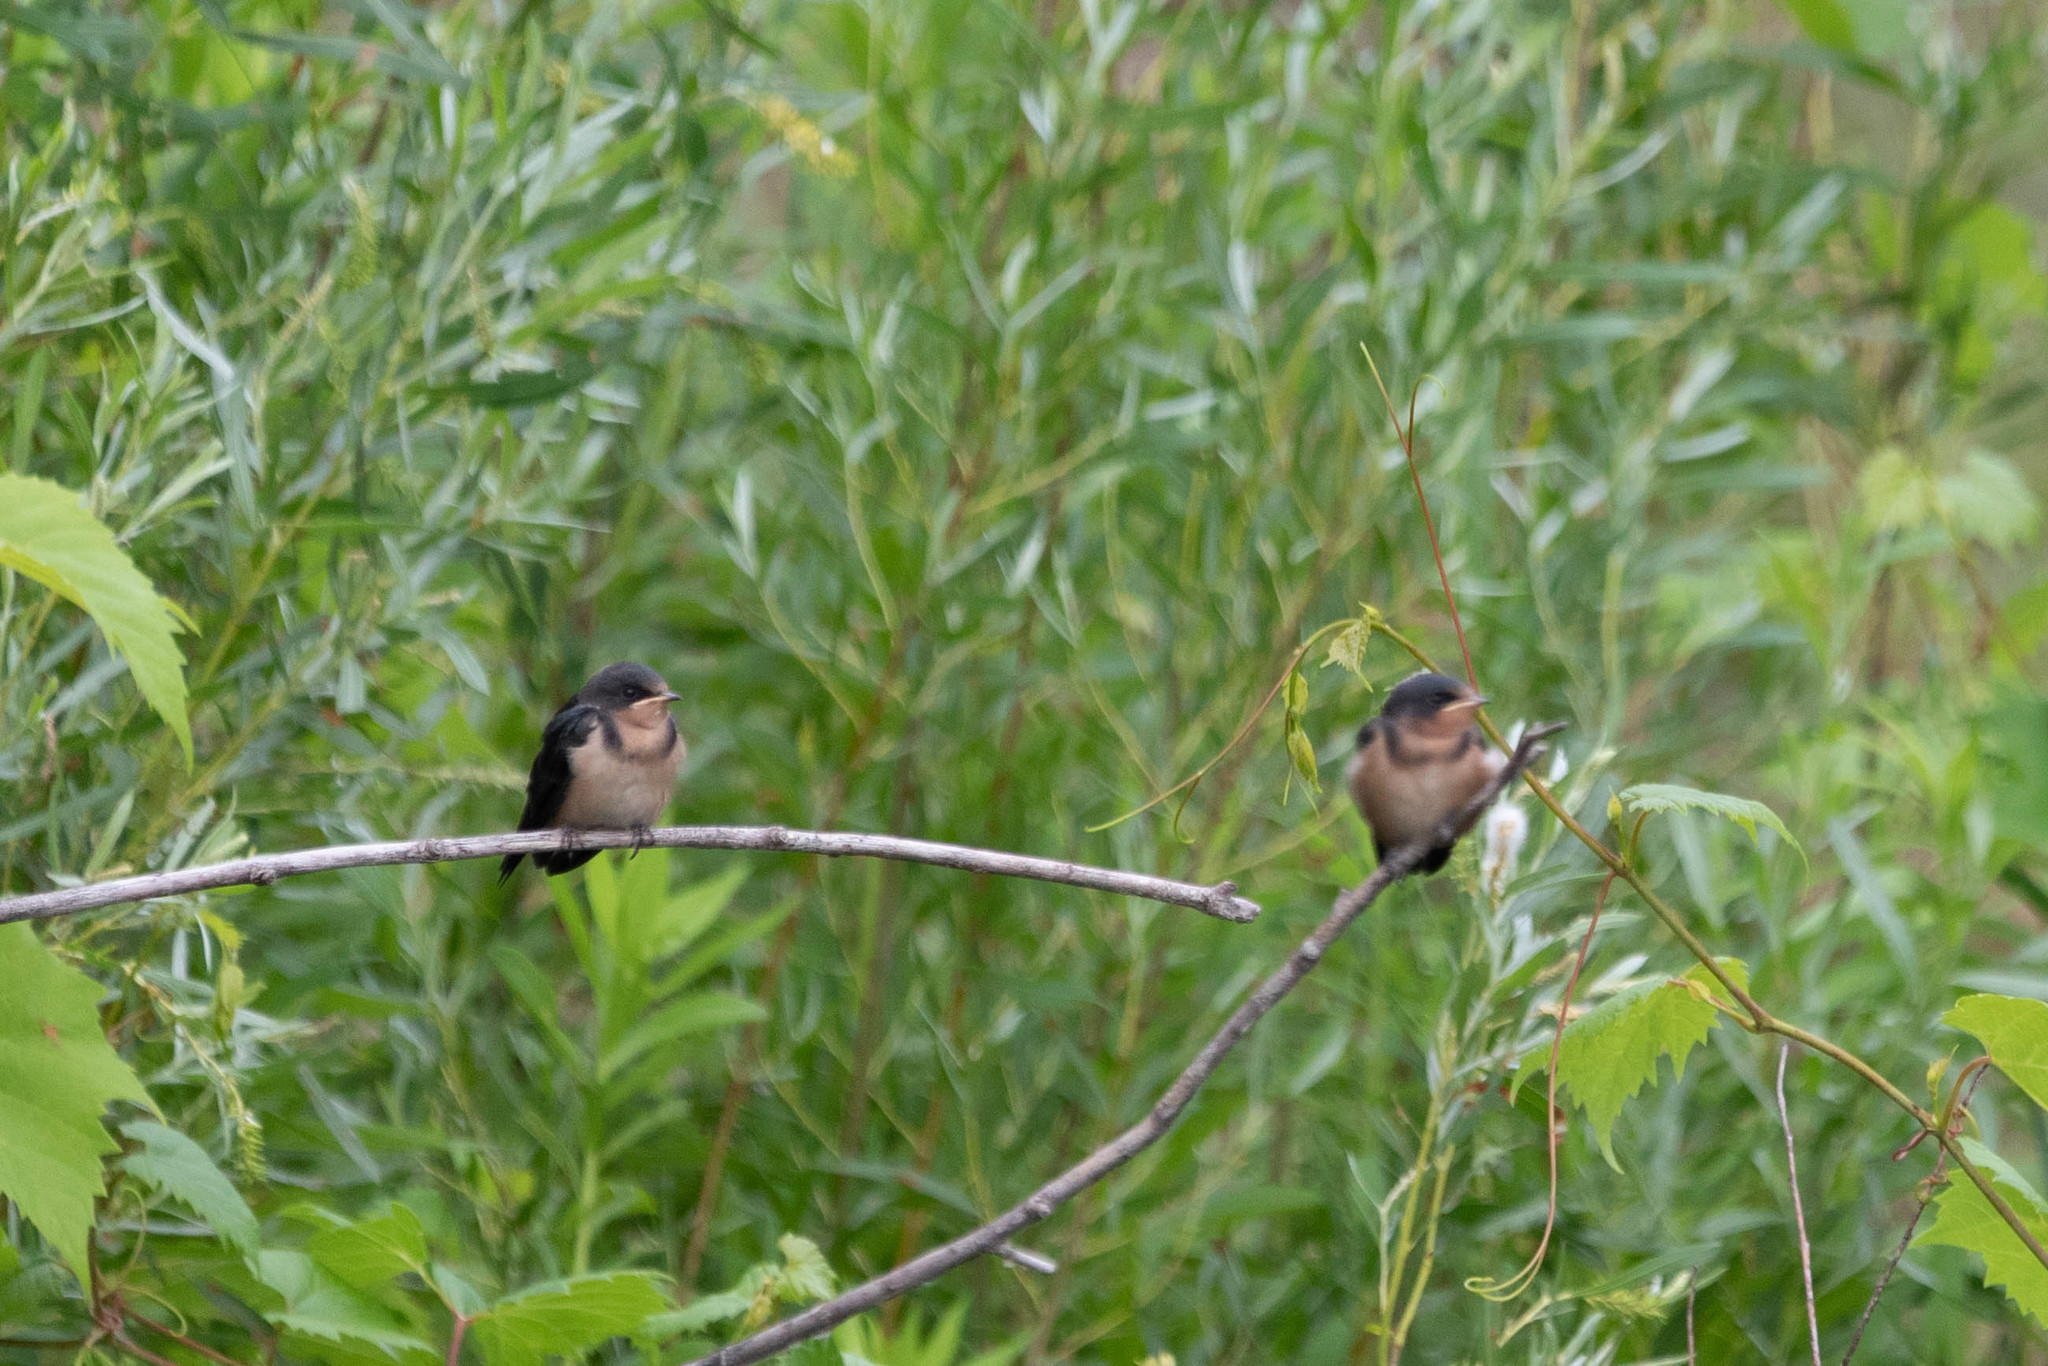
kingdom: Animalia
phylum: Chordata
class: Aves
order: Passeriformes
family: Hirundinidae
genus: Hirundo
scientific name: Hirundo rustica
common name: Barn swallow
